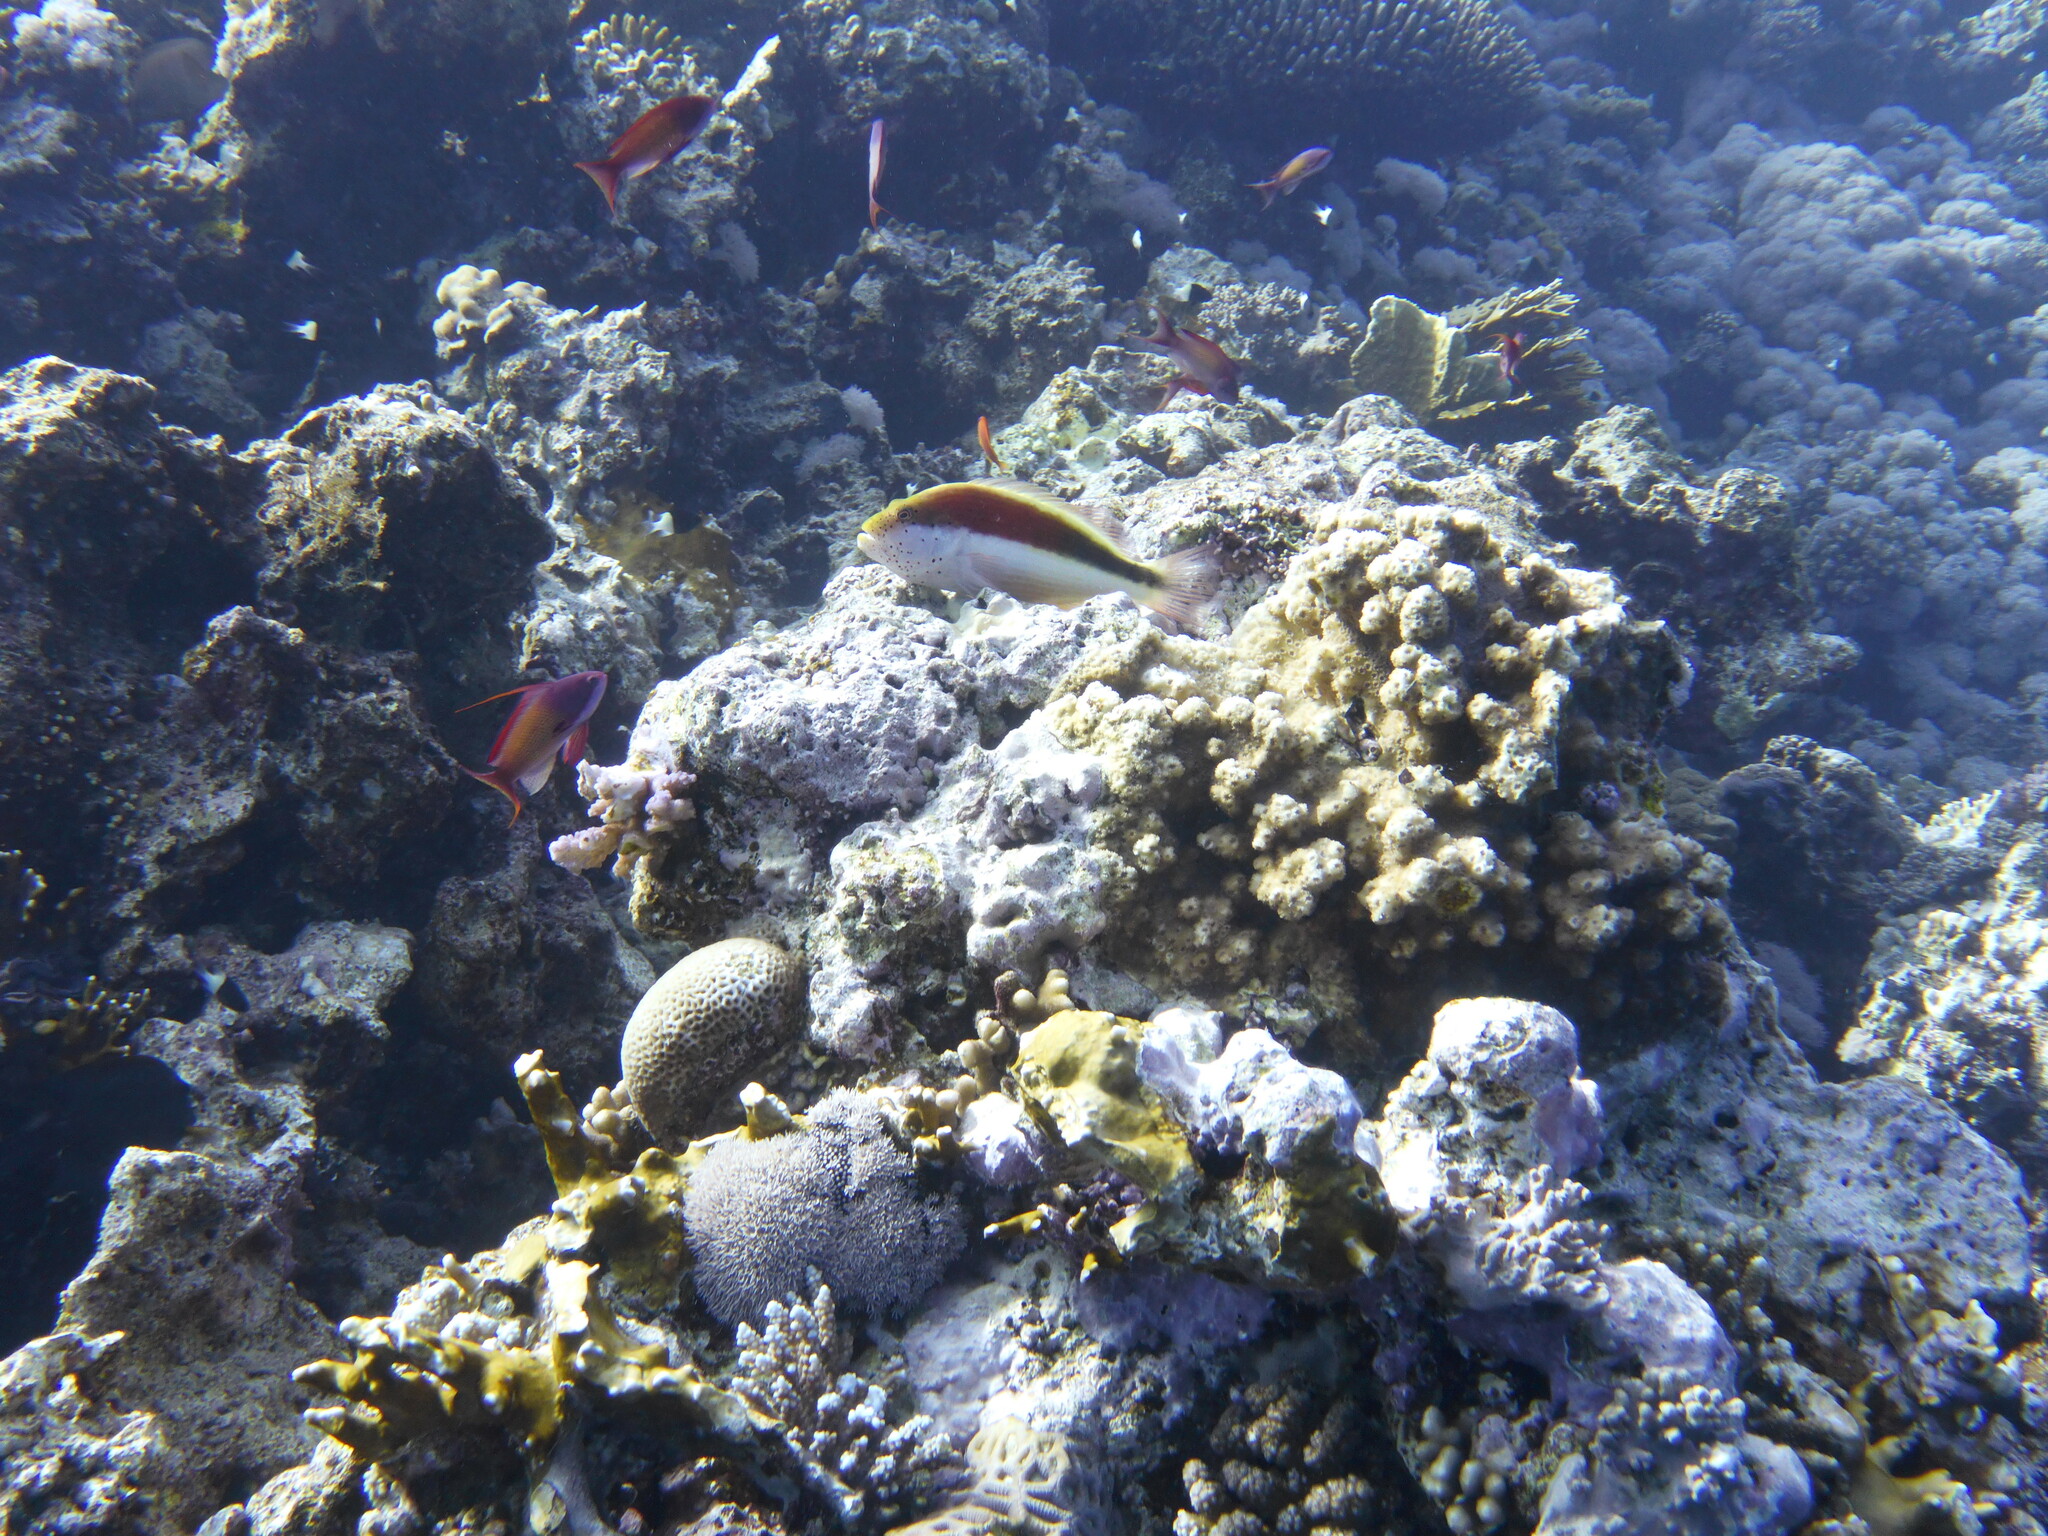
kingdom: Animalia
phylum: Chordata
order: Perciformes
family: Cirrhitidae
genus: Paracirrhites
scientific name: Paracirrhites forsteri
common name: Freckled hawkfish
